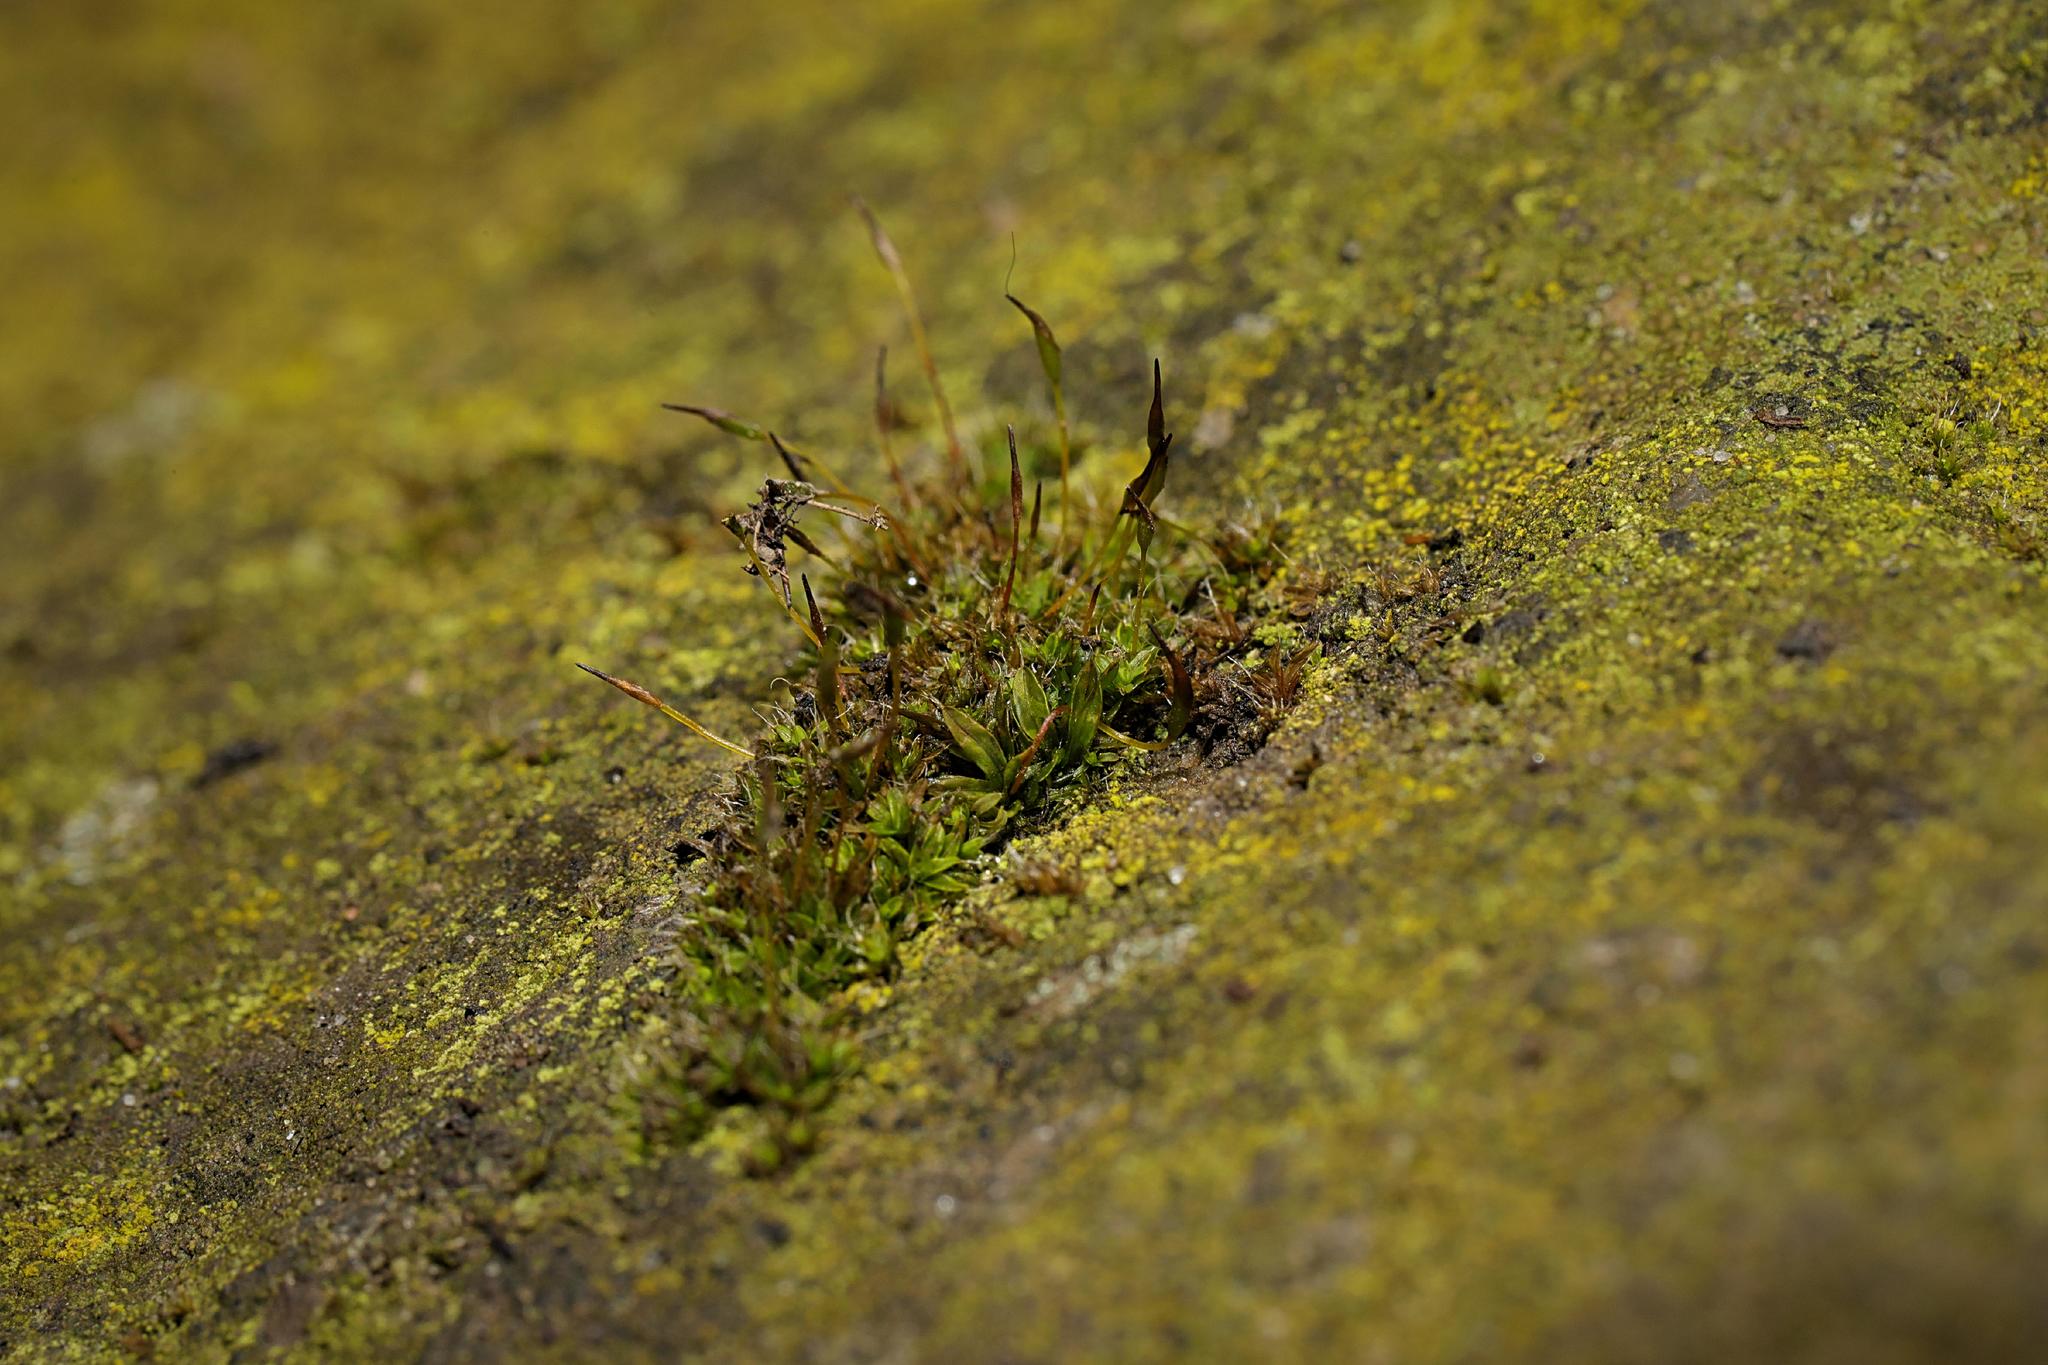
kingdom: Plantae
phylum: Bryophyta
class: Bryopsida
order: Pottiales
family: Pottiaceae
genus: Tortula
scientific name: Tortula muralis
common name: Wall screw-moss
